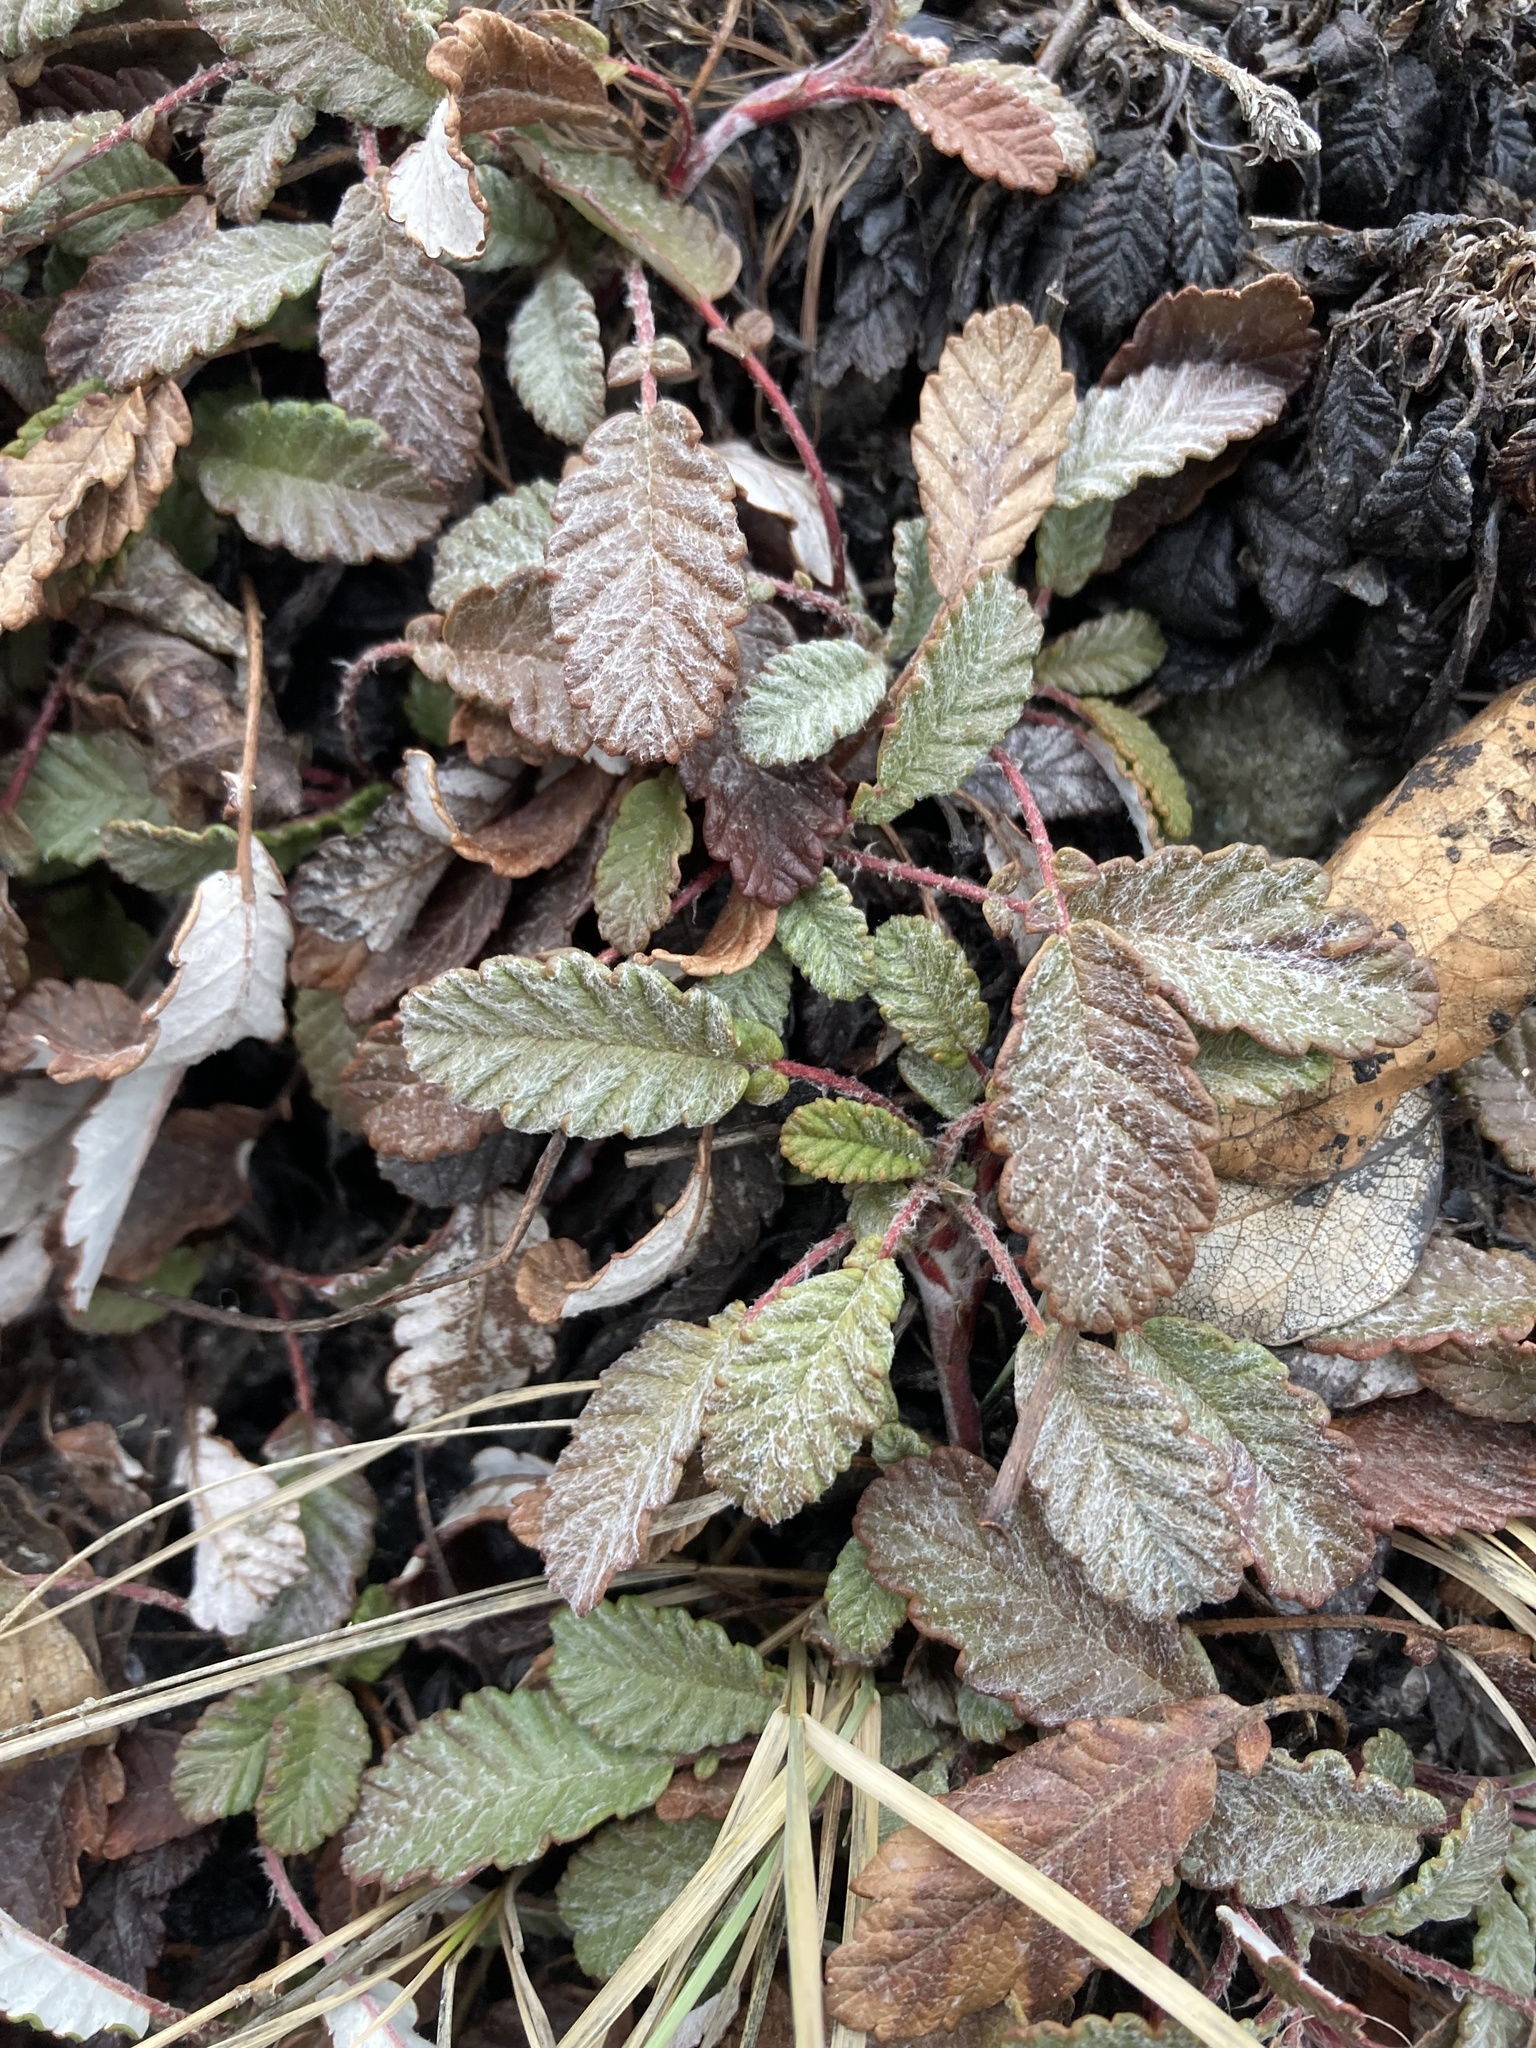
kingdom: Plantae
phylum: Tracheophyta
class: Magnoliopsida
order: Rosales
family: Rosaceae
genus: Dryas
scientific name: Dryas drummondii
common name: Drummond's dryad
